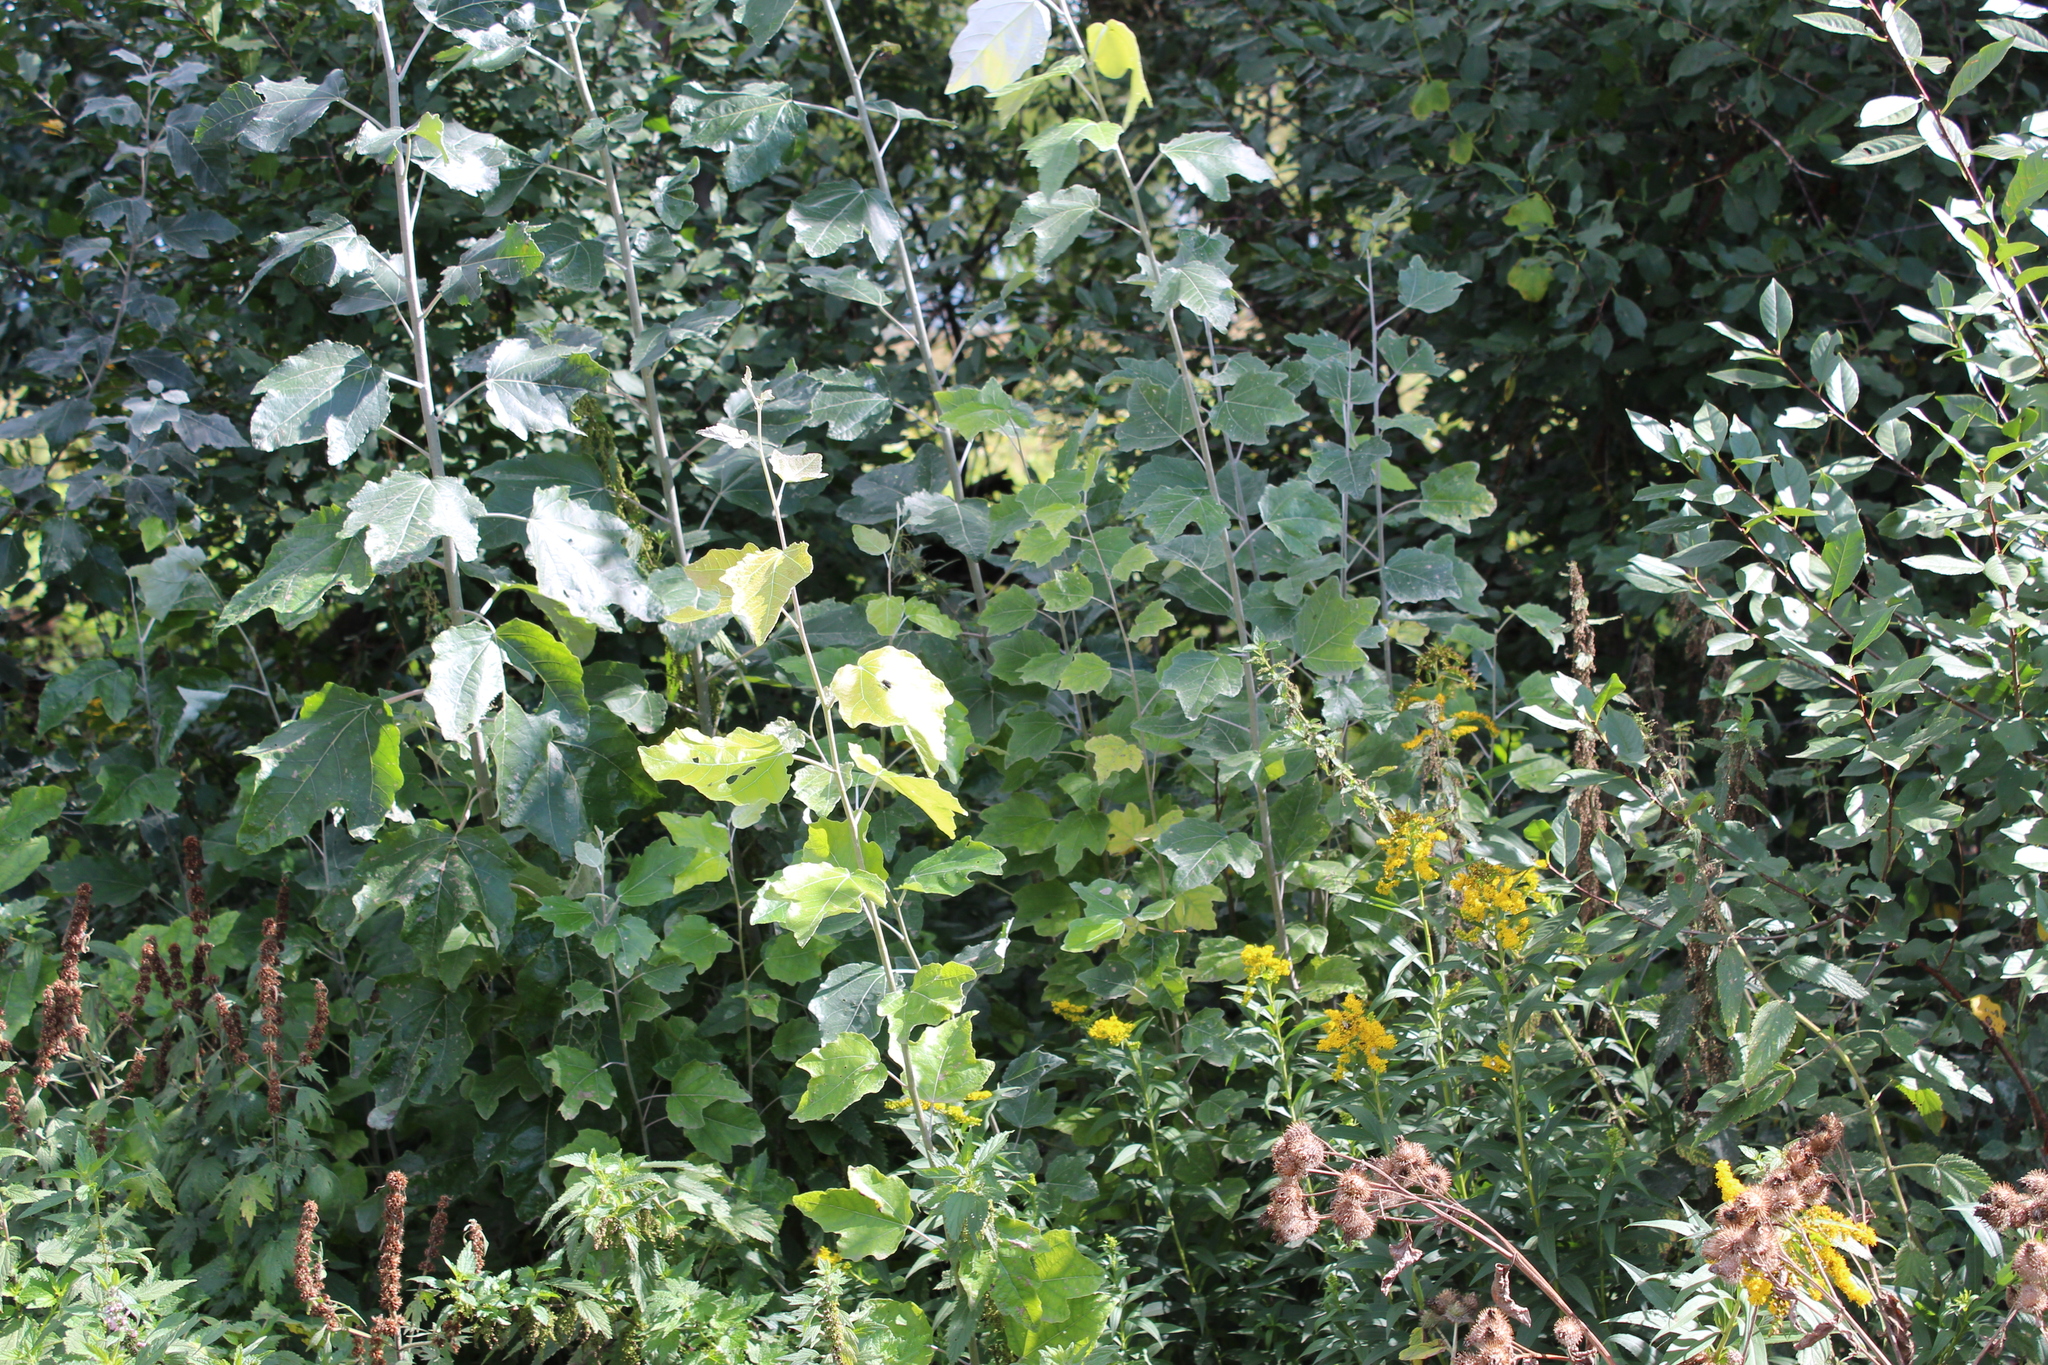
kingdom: Plantae
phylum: Tracheophyta
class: Magnoliopsida
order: Malpighiales
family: Salicaceae
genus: Populus
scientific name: Populus alba
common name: White poplar
